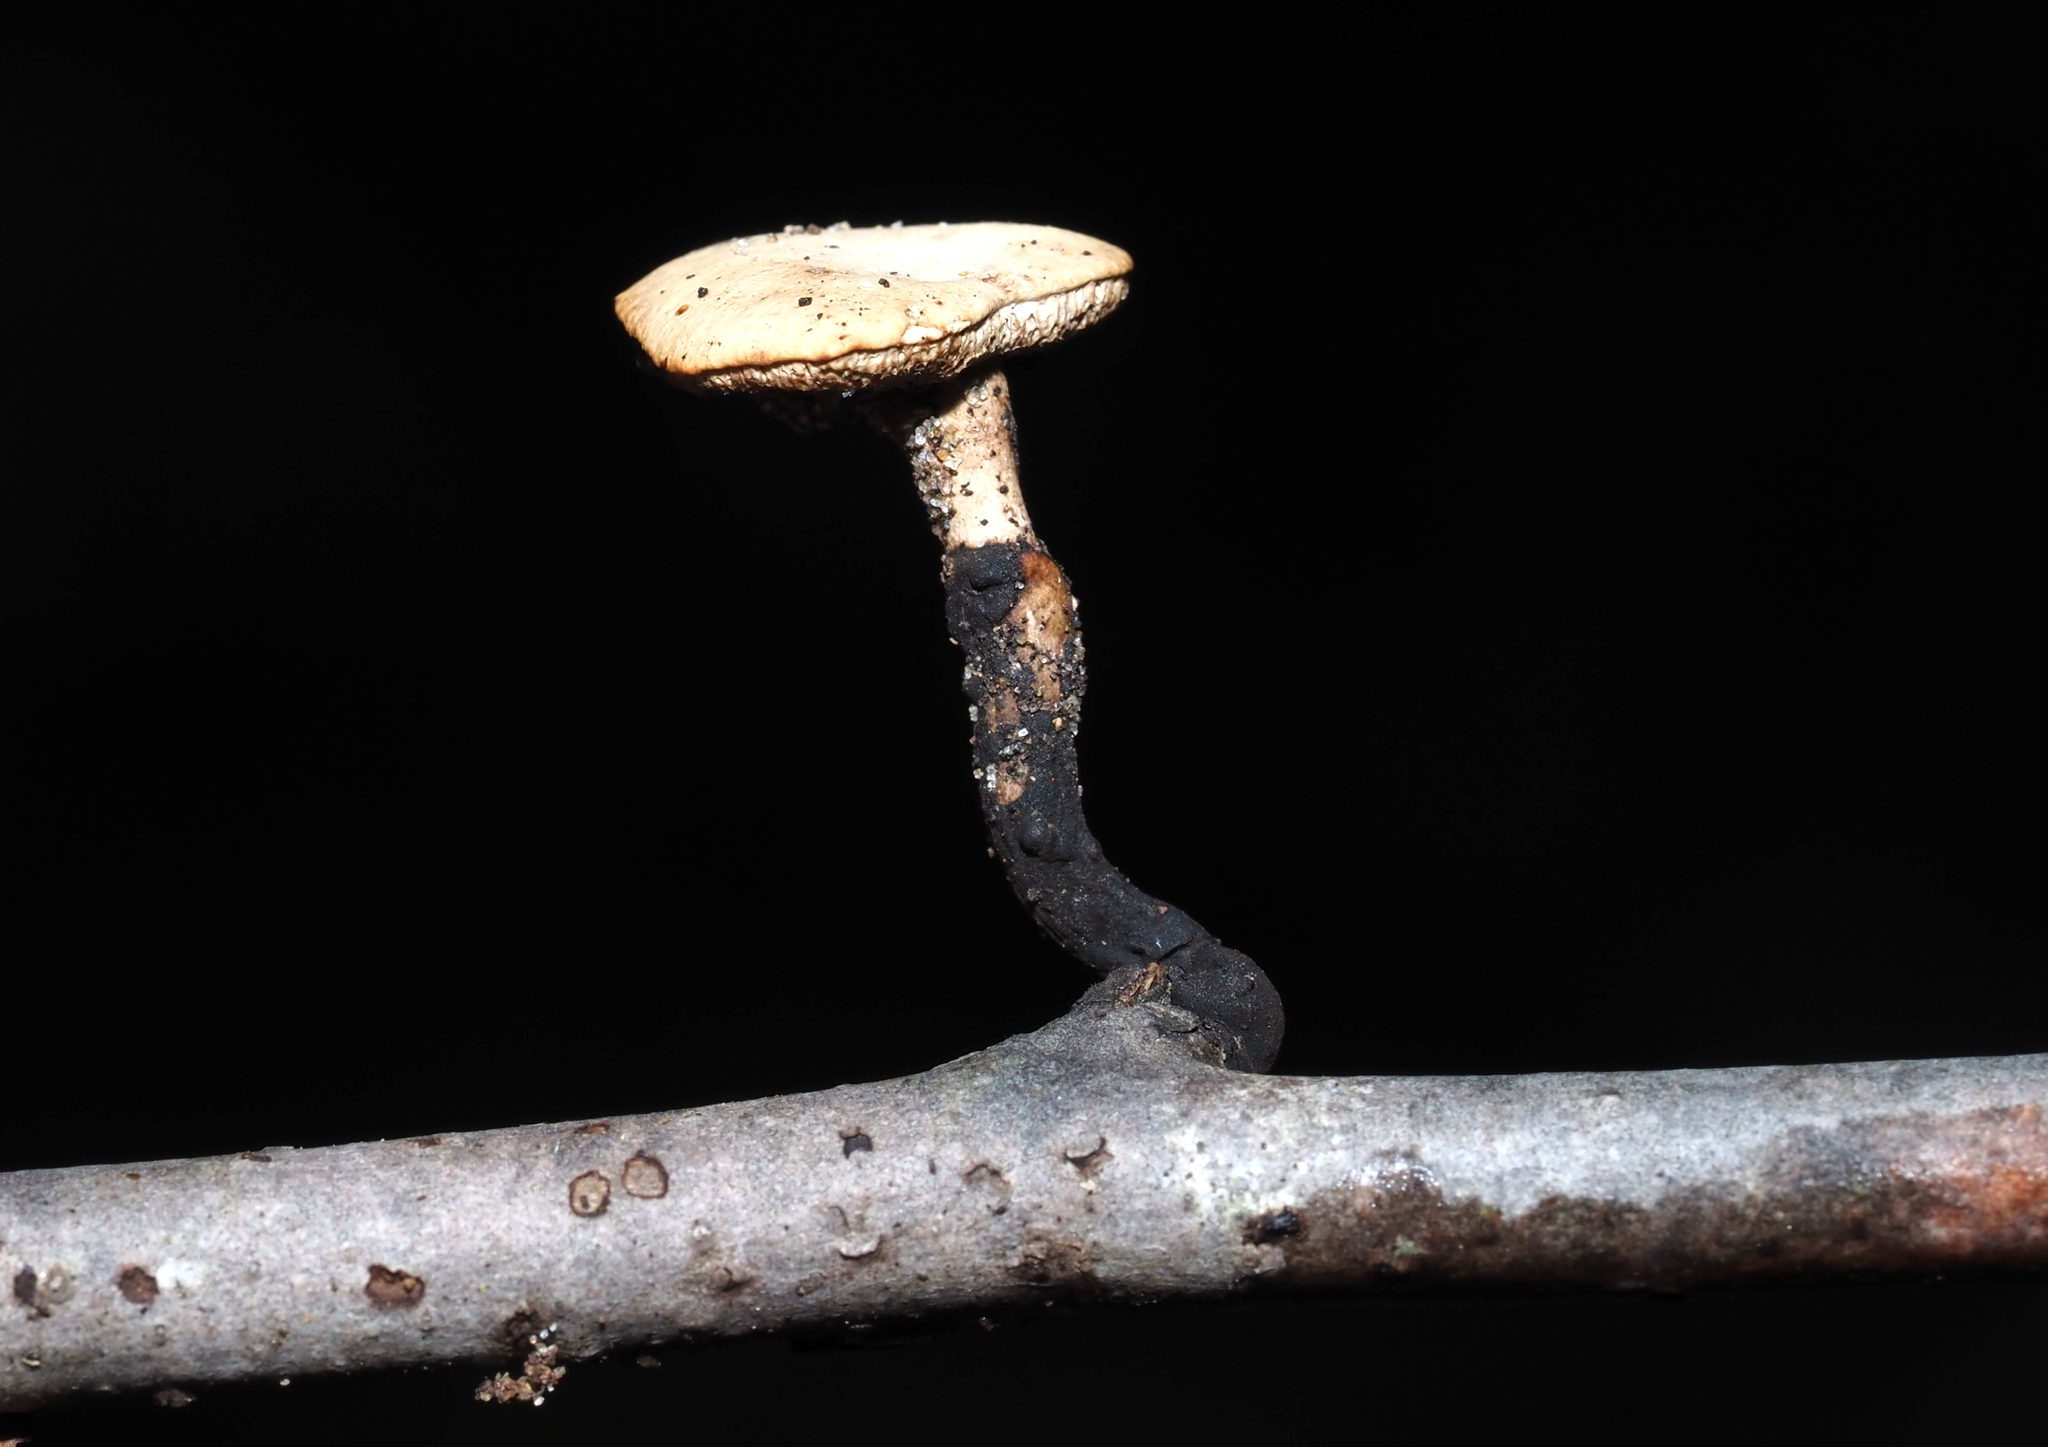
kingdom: Fungi
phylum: Basidiomycota
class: Agaricomycetes
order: Polyporales
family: Polyporaceae
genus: Cerioporus
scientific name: Cerioporus leptocephalus
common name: Blackfoot polypore
